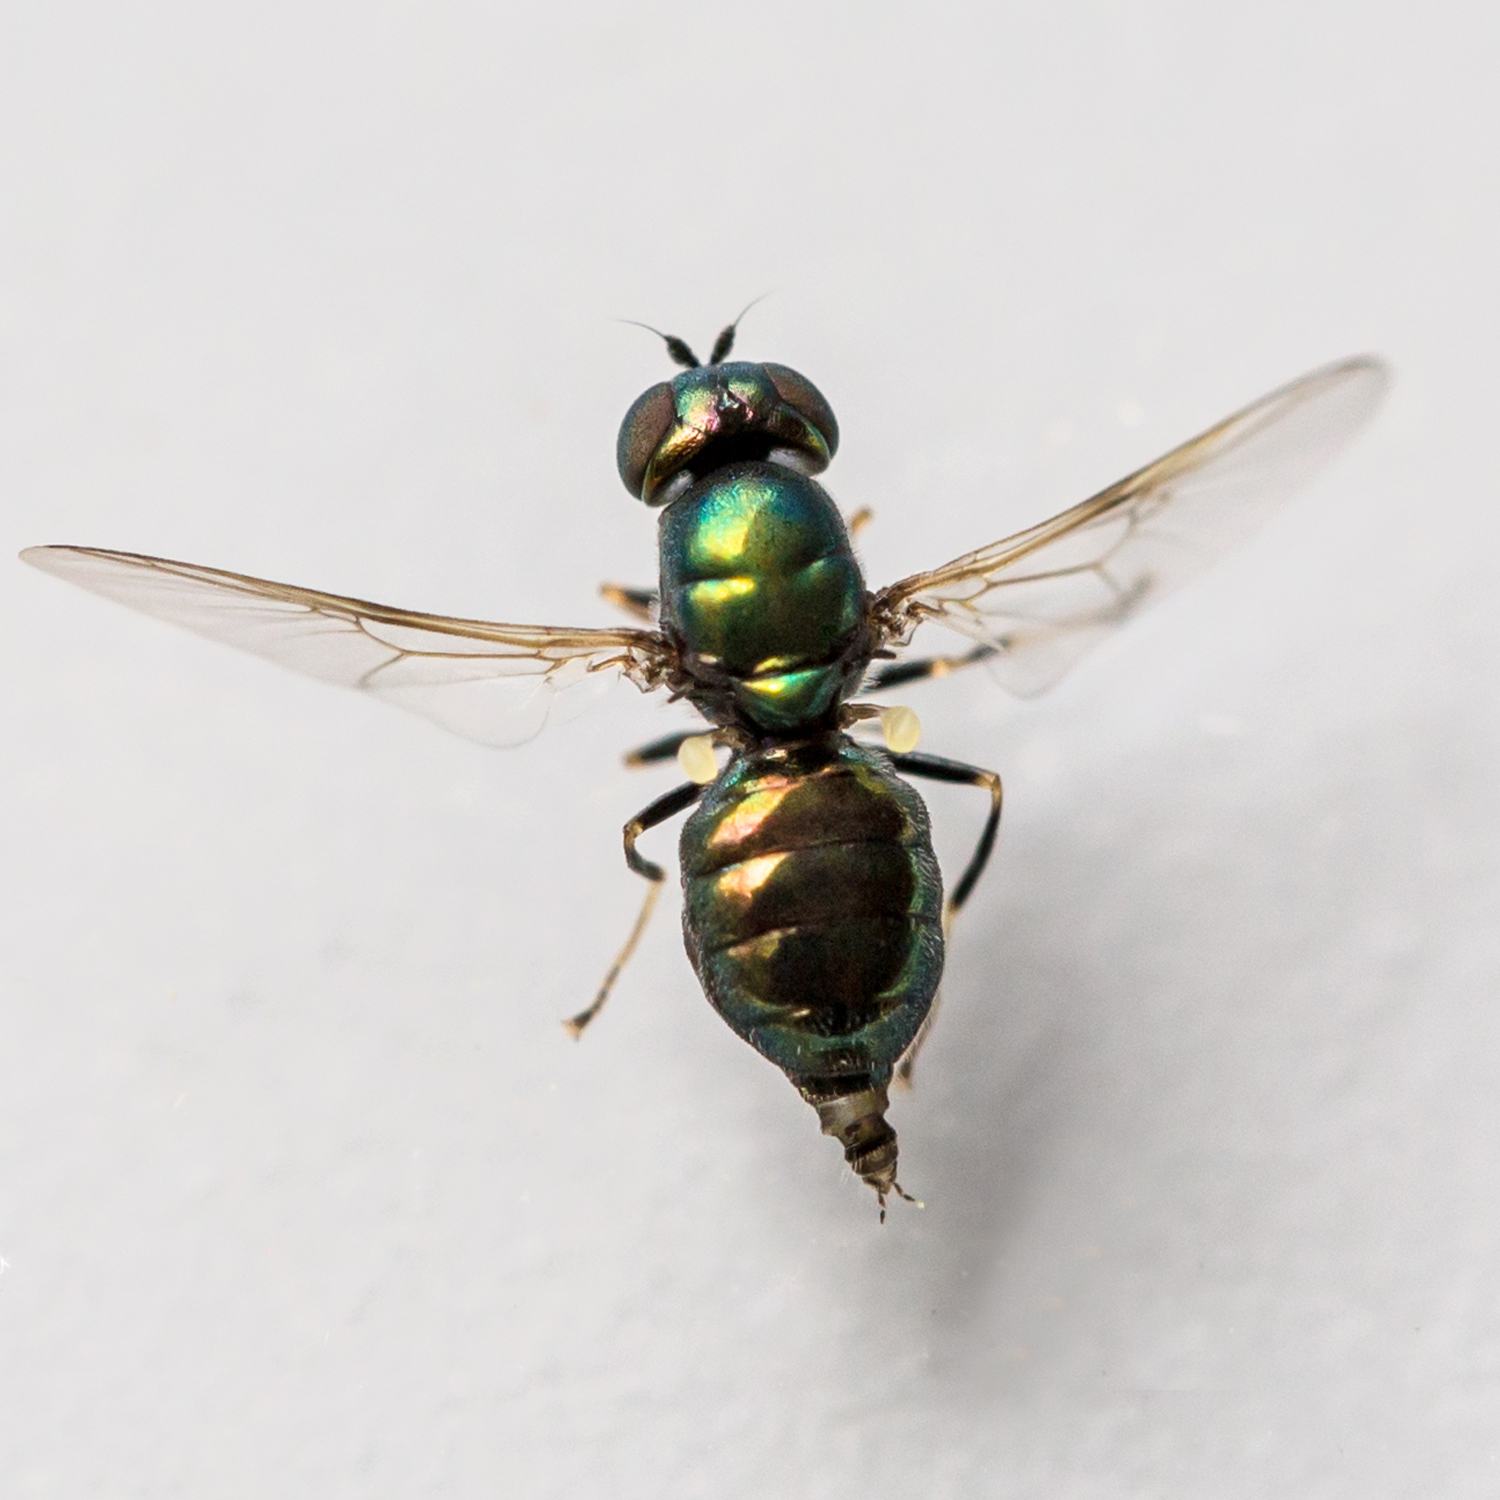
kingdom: Animalia
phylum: Arthropoda
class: Insecta
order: Diptera
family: Stratiomyidae
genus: Microchrysa
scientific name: Microchrysa polita
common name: Black-horned gem
